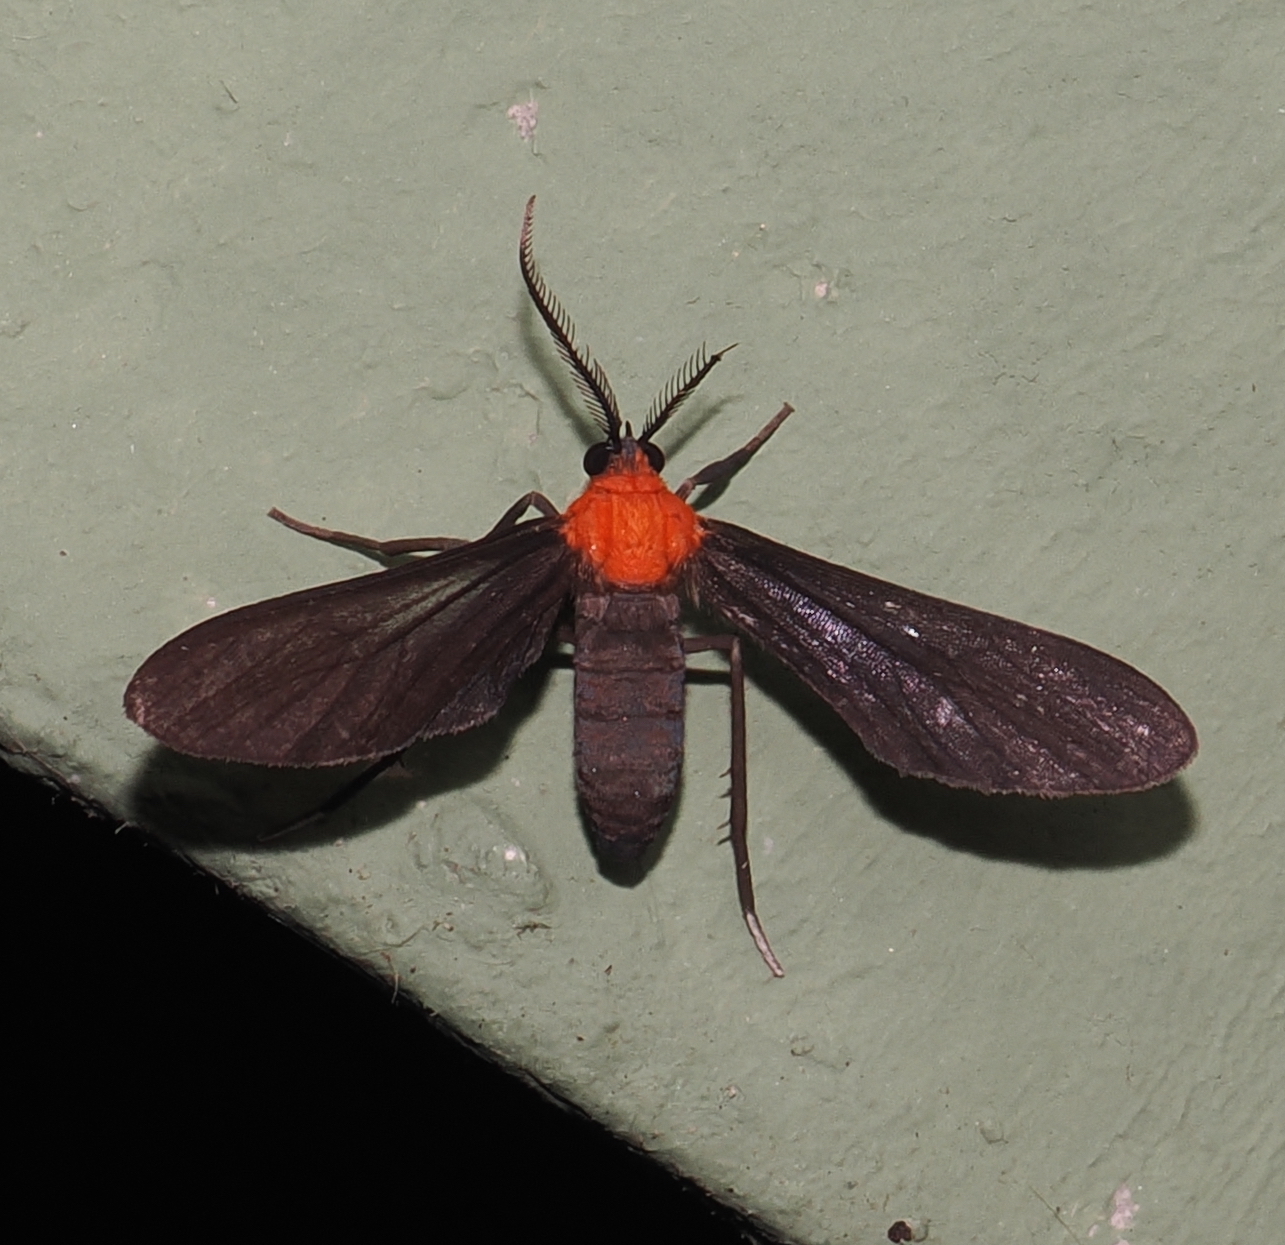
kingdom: Animalia
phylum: Arthropoda
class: Insecta
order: Lepidoptera
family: Erebidae
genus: Saurita
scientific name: Saurita incerta
